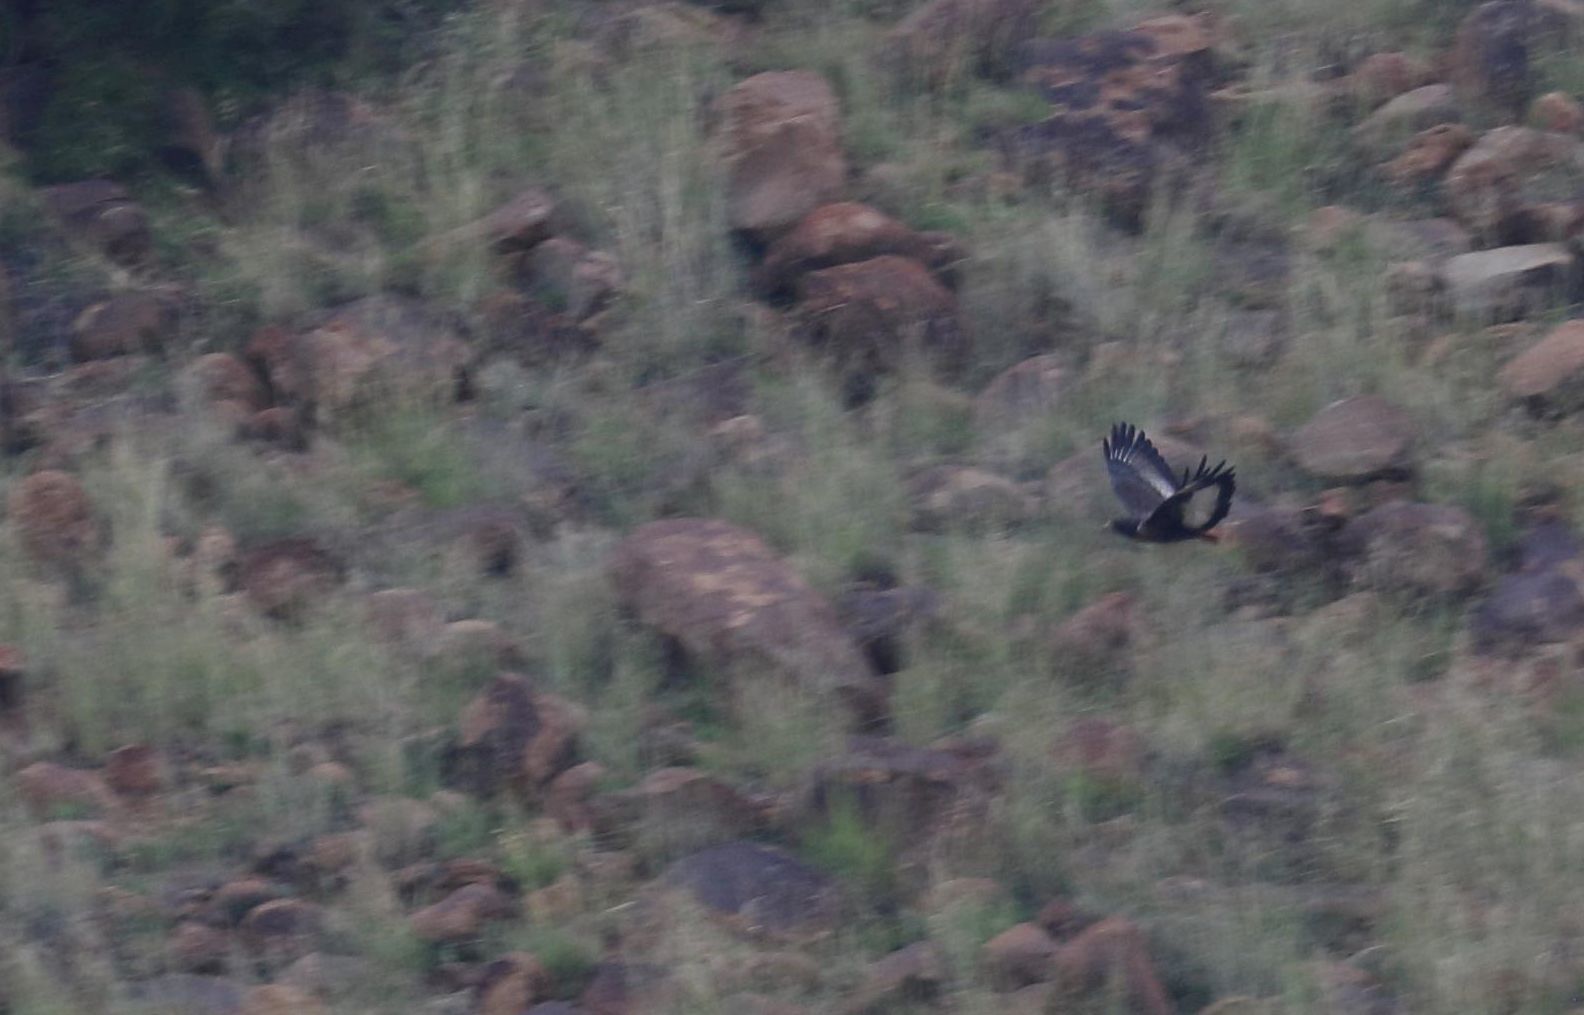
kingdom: Animalia
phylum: Chordata
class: Aves
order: Accipitriformes
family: Accipitridae
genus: Buteo
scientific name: Buteo rufofuscus
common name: Jackal buzzard
